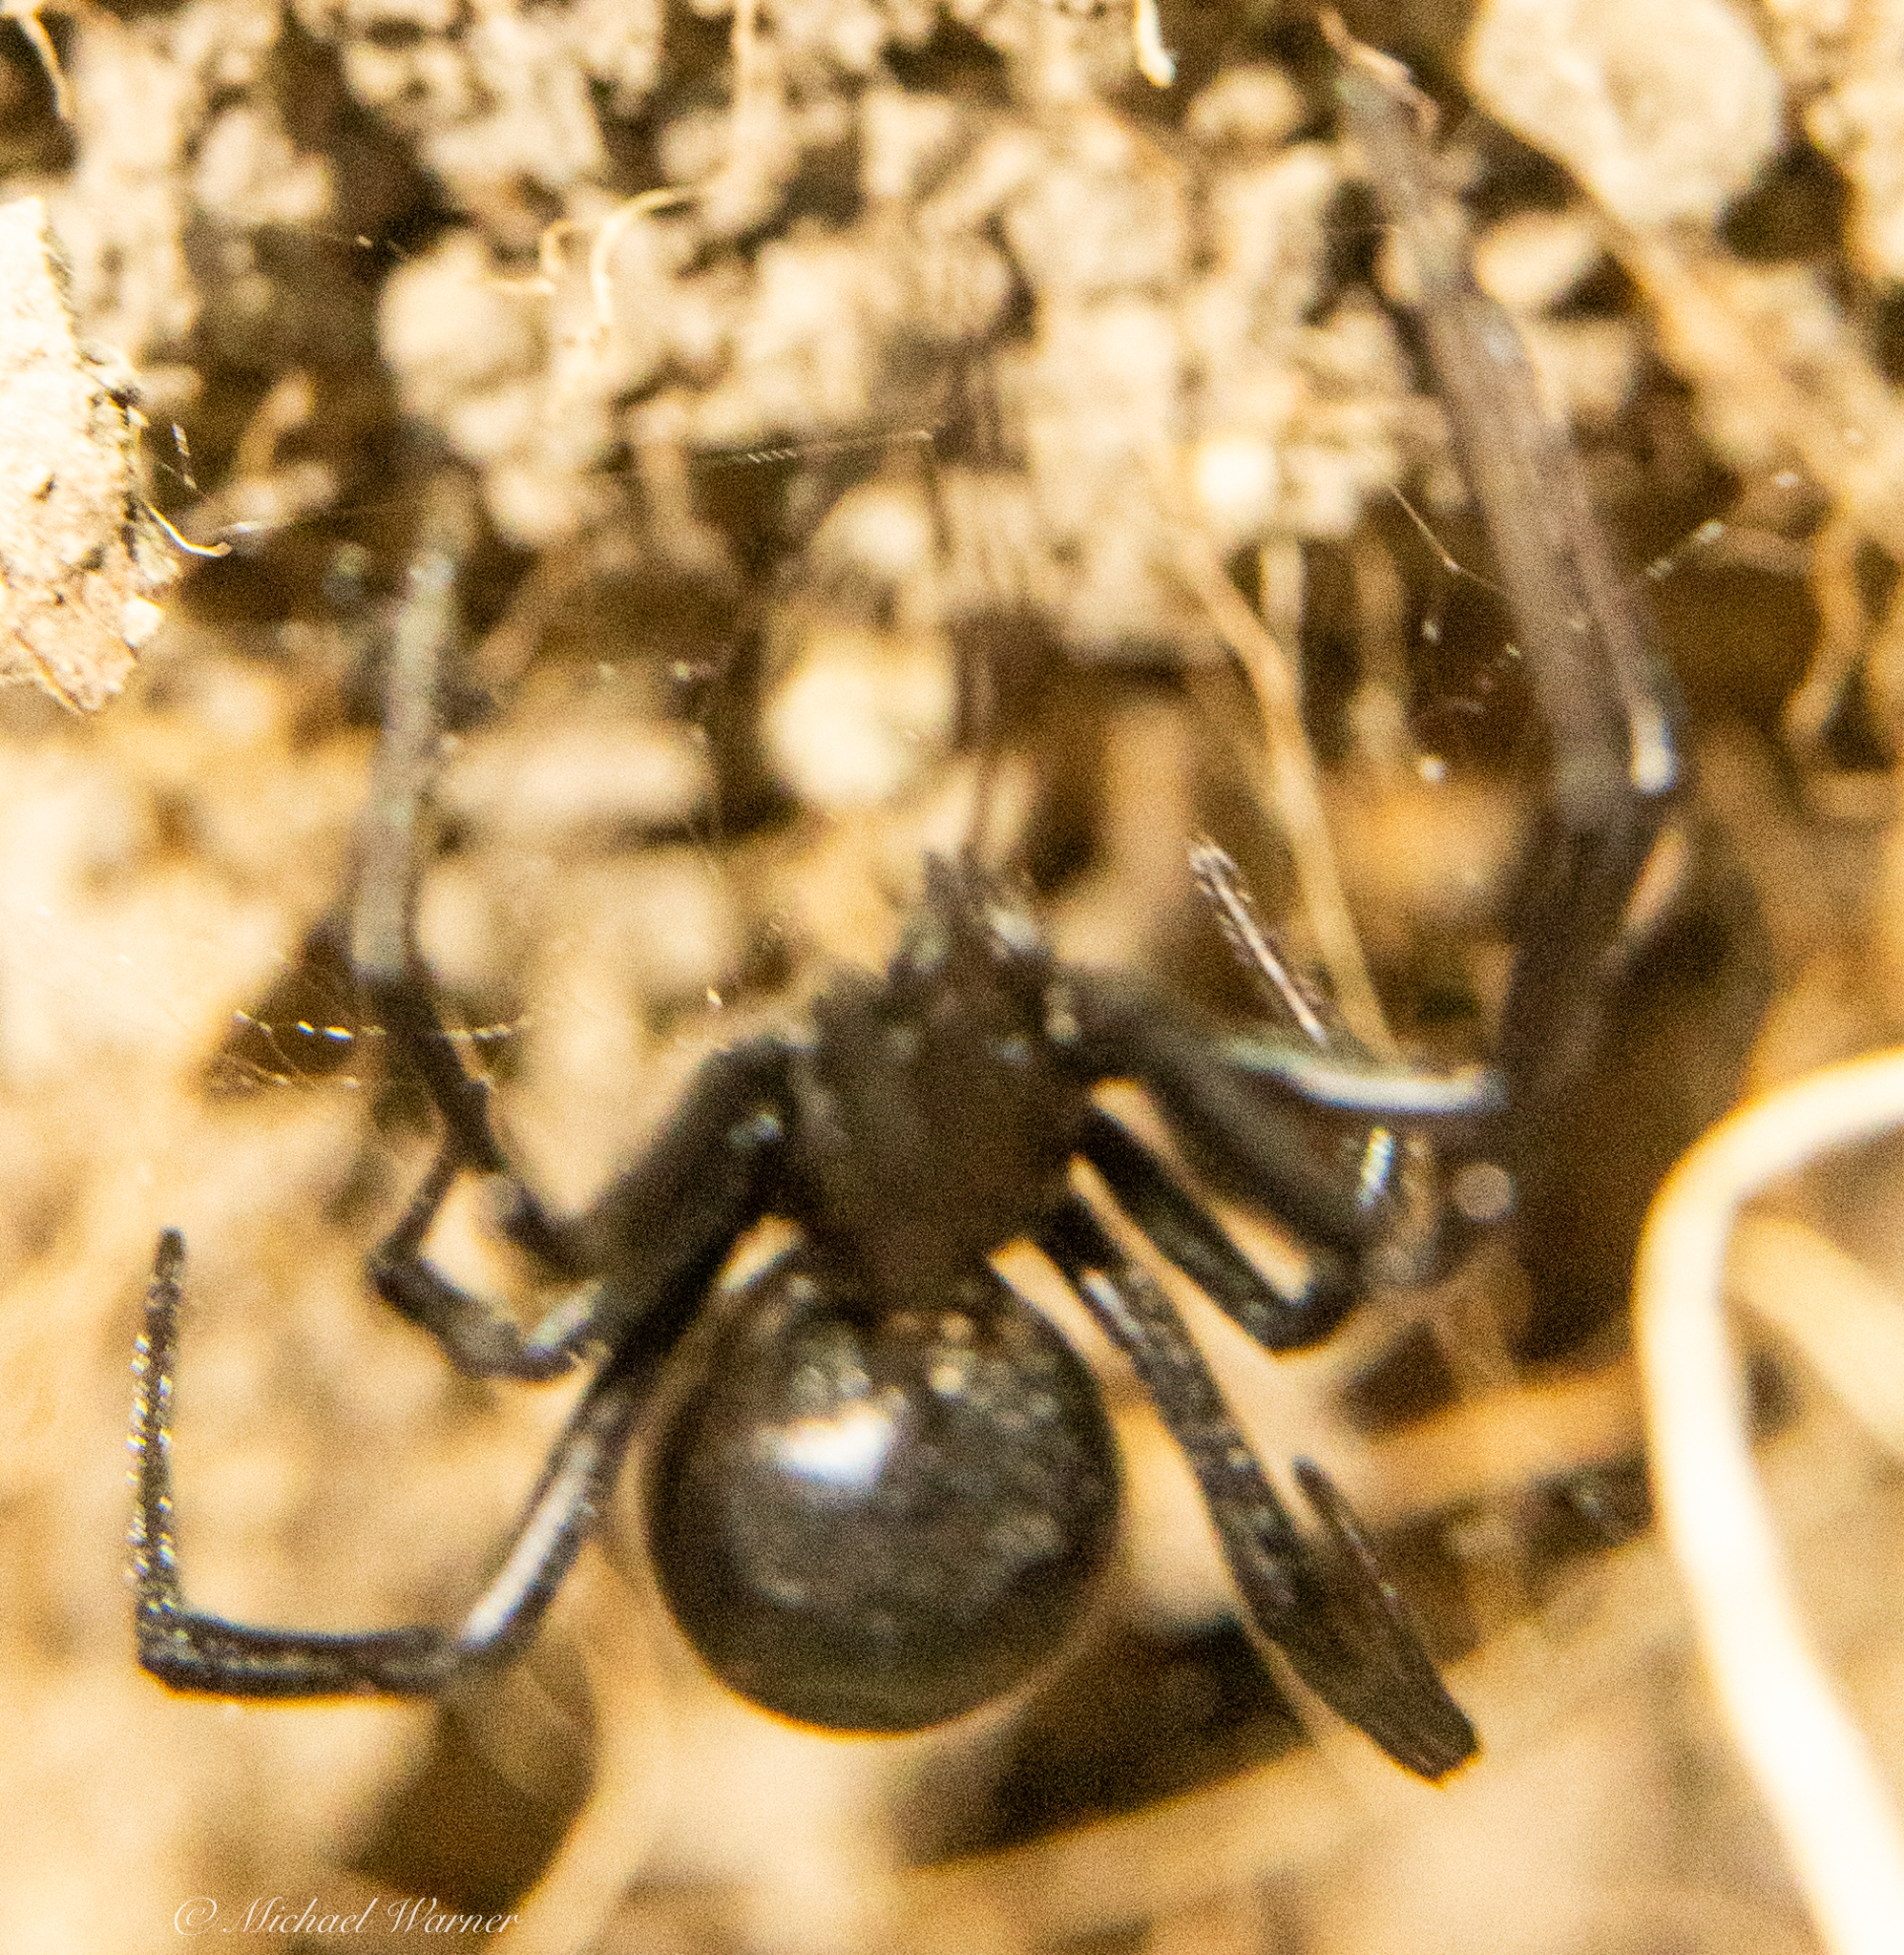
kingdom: Animalia
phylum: Arthropoda
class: Arachnida
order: Araneae
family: Theridiidae
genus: Latrodectus
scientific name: Latrodectus hesperus
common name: Western black widow
